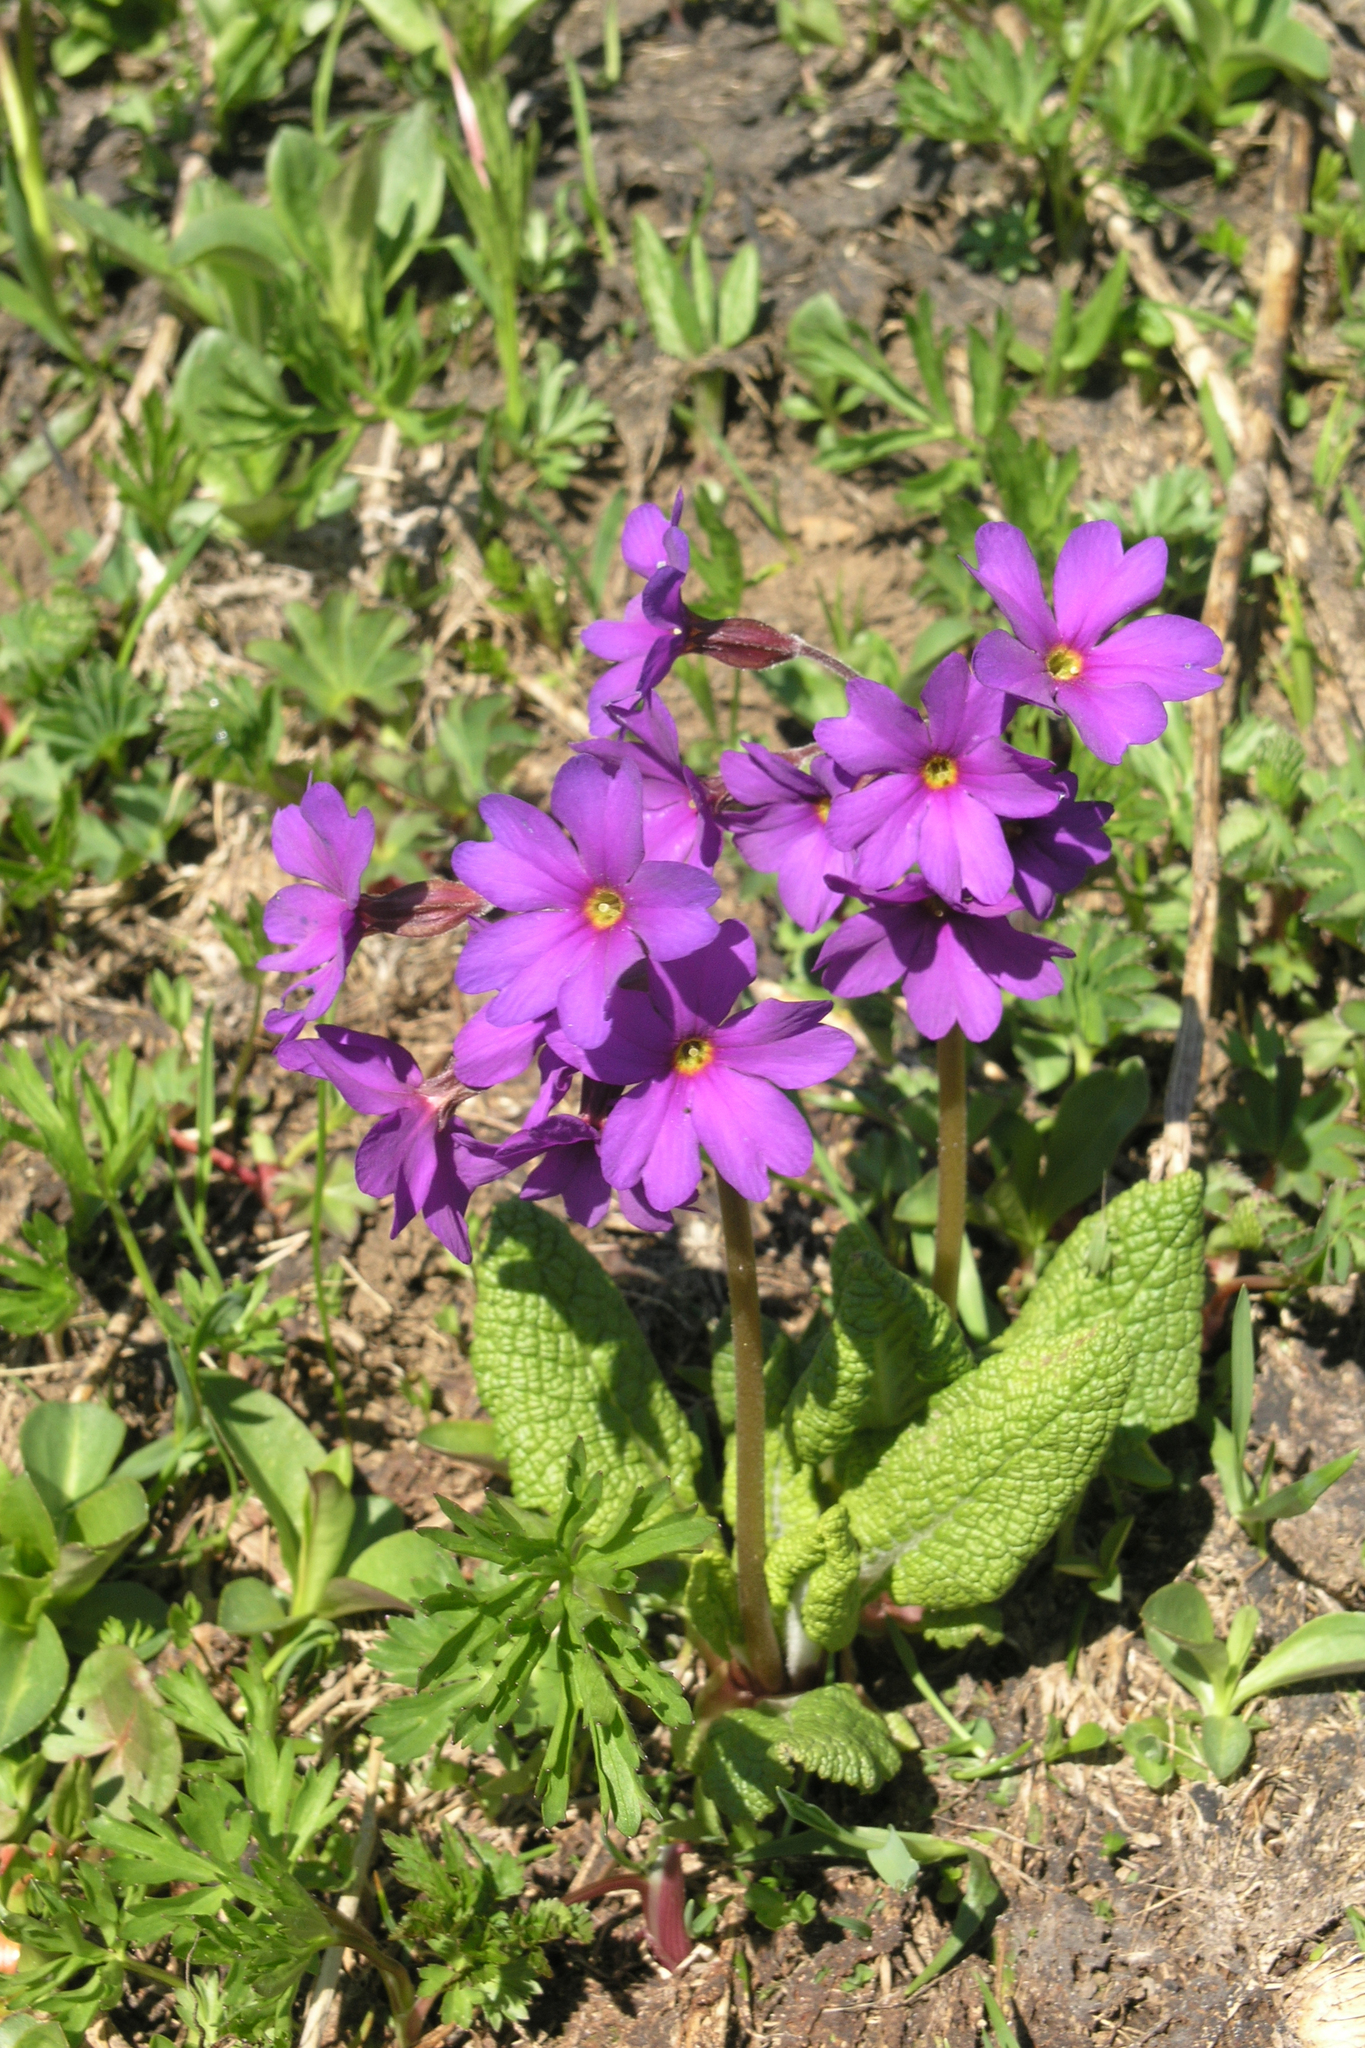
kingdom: Plantae
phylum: Tracheophyta
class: Magnoliopsida
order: Ericales
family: Primulaceae
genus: Primula
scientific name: Primula algida
